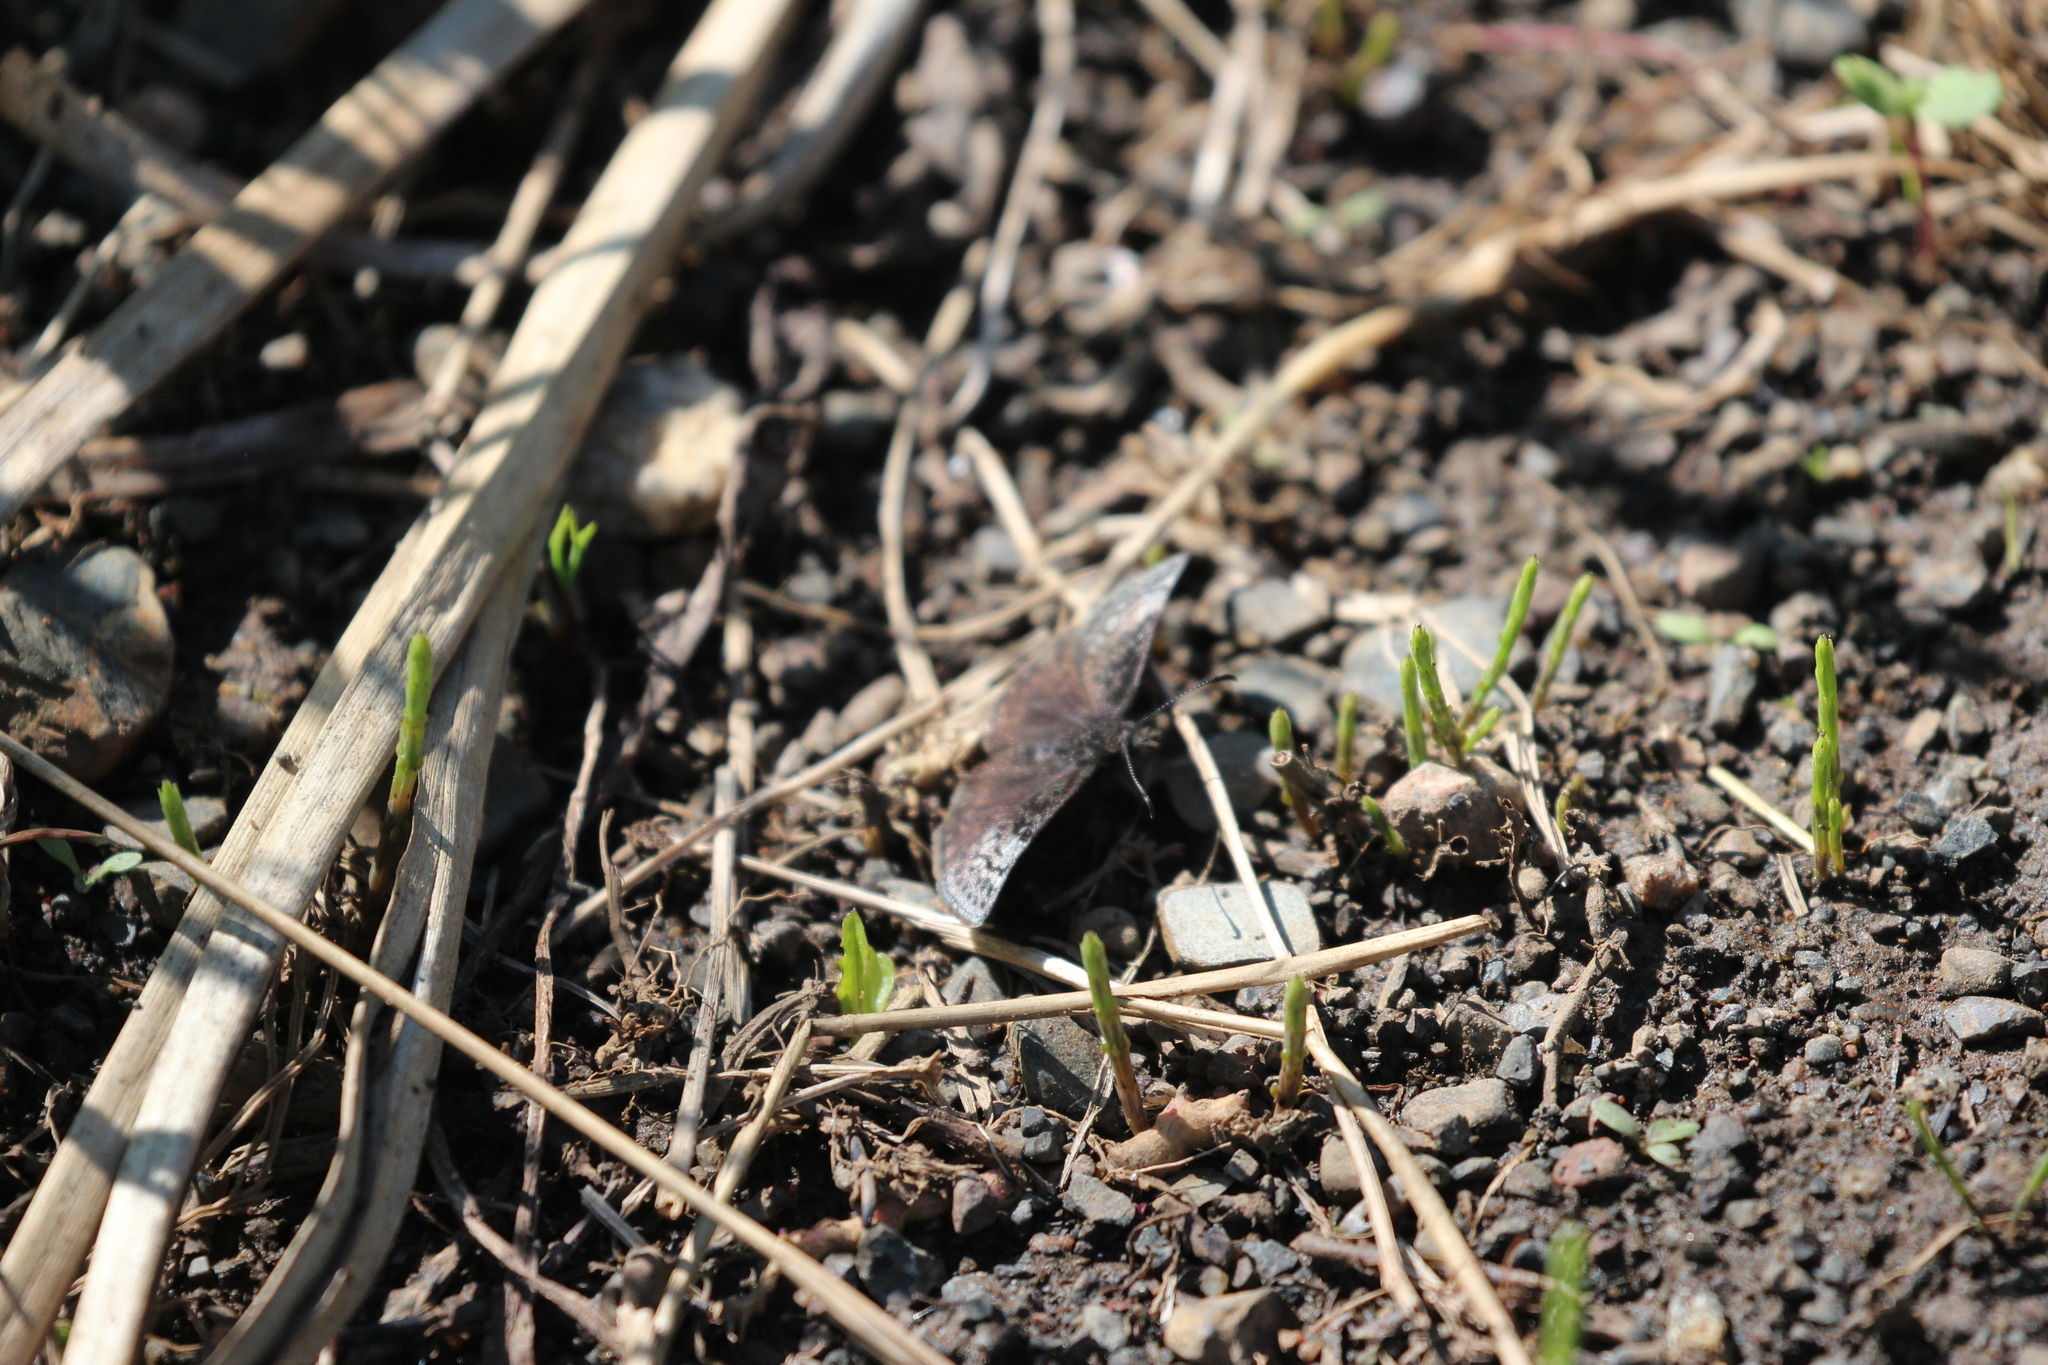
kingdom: Animalia
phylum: Arthropoda
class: Insecta
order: Lepidoptera
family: Hesperiidae
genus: Erynnis
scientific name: Erynnis icelus
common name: Dreamy duskywing
